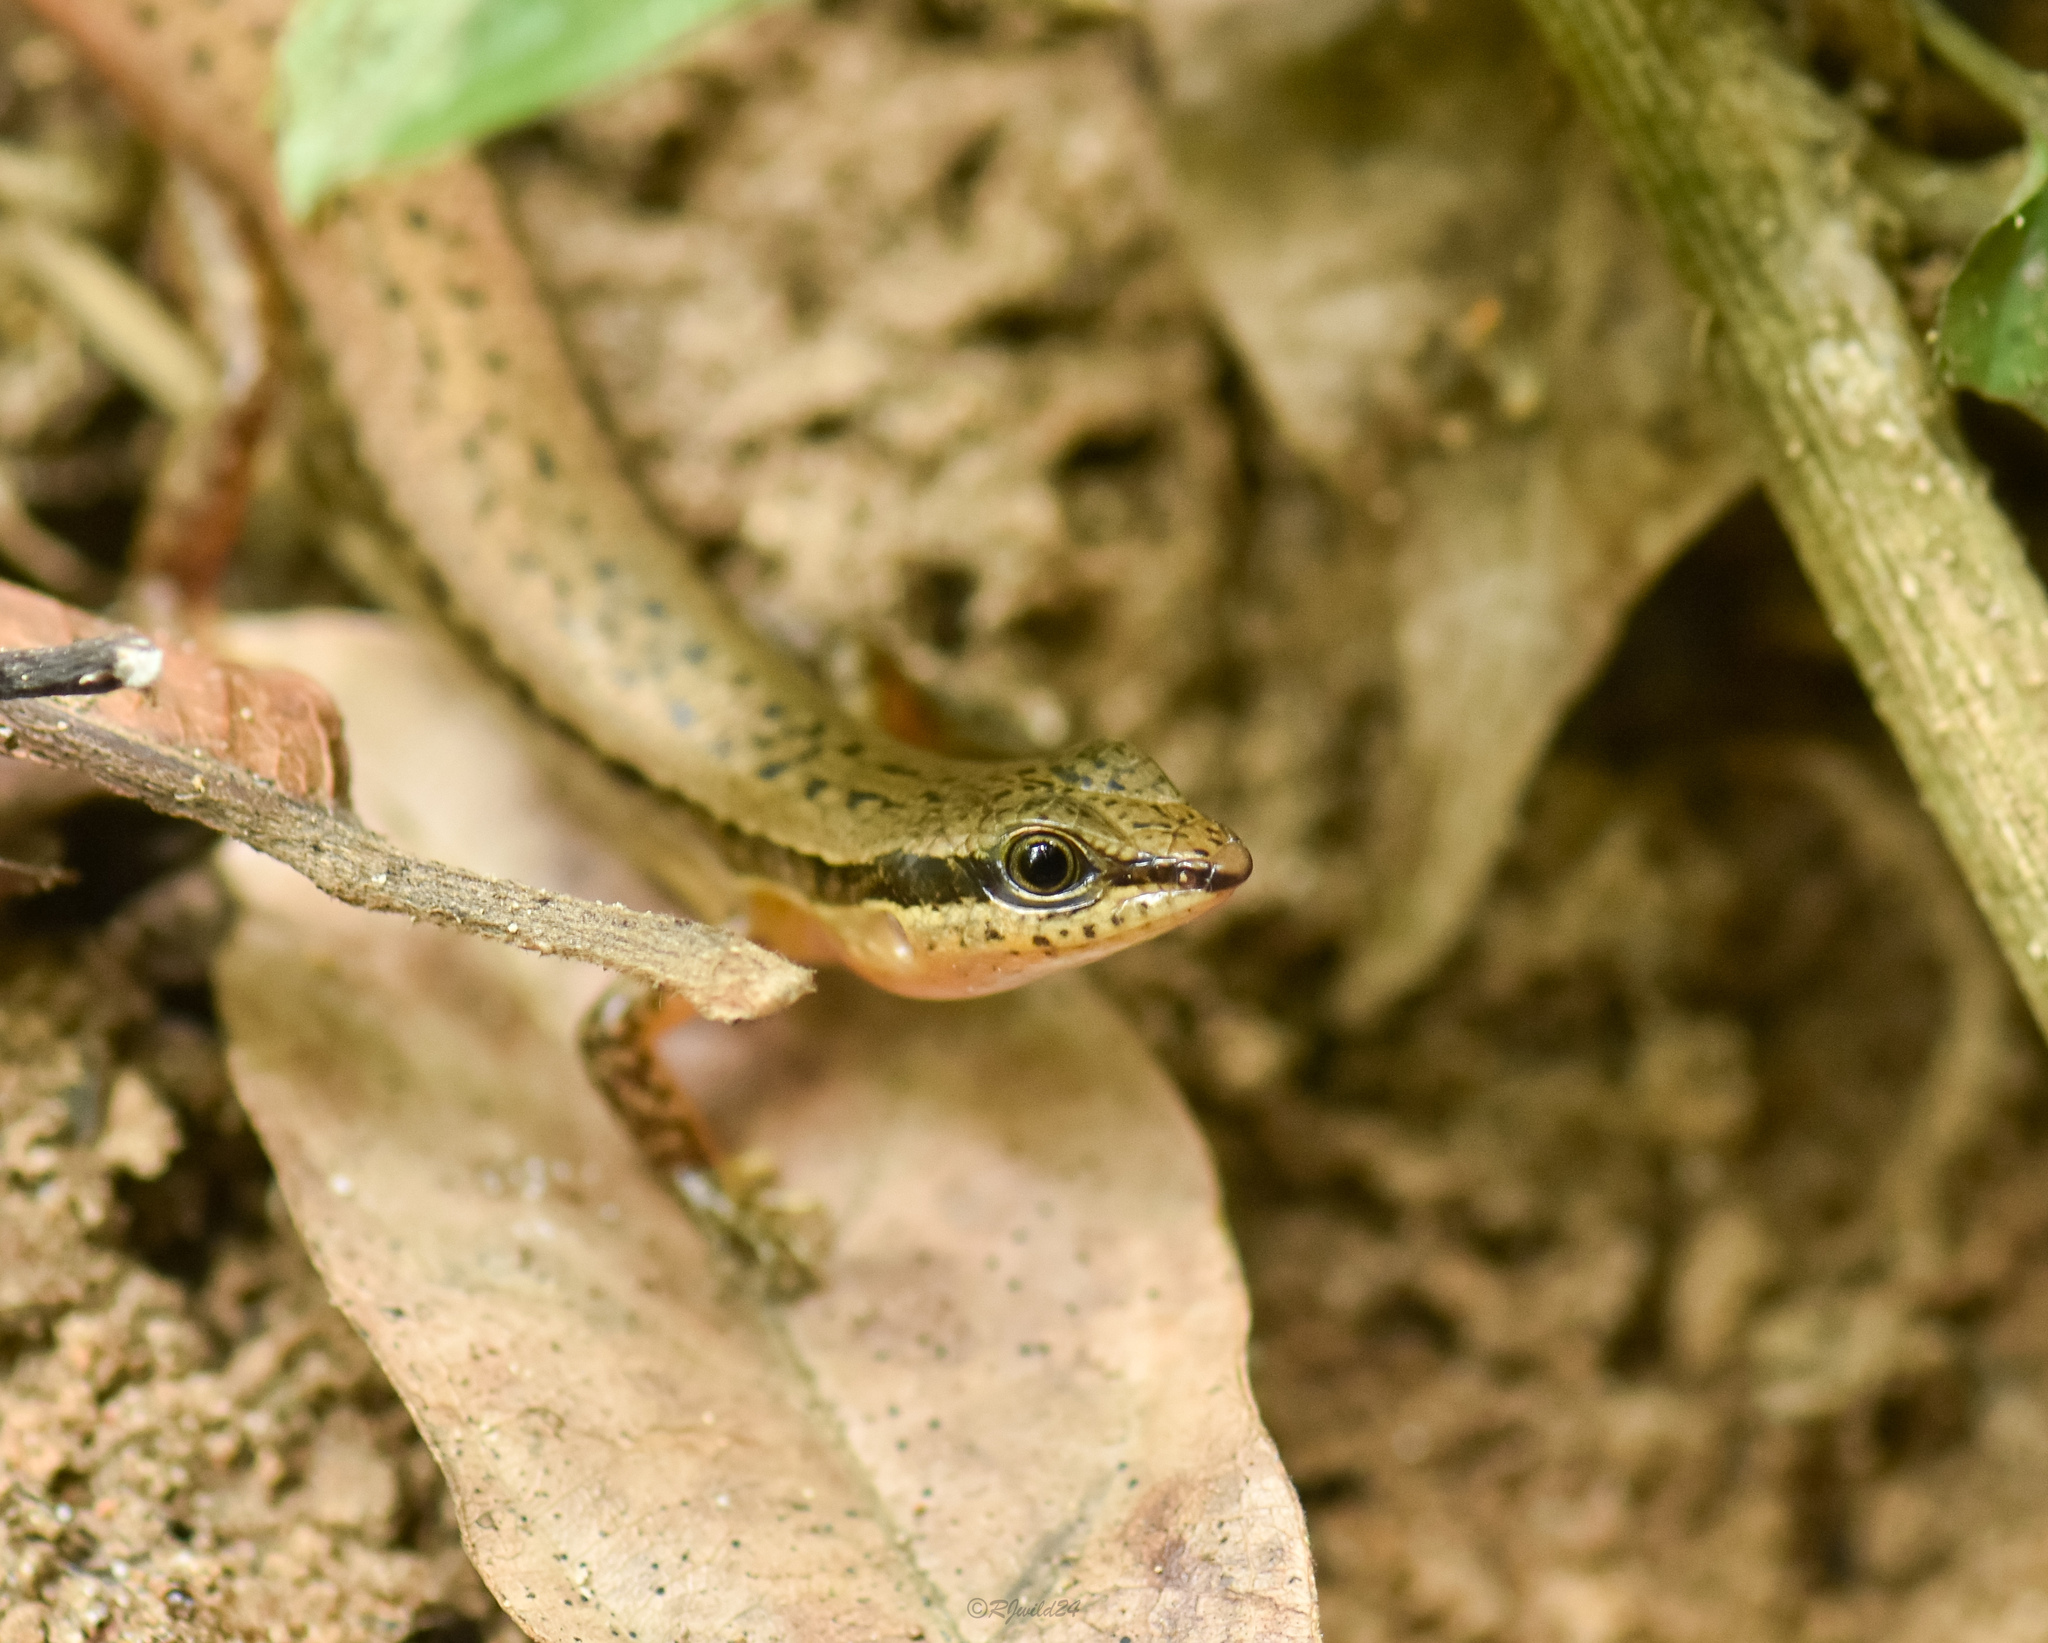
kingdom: Animalia
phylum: Chordata
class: Squamata
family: Scincidae
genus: Sphenomorphus
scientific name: Sphenomorphus maculatus
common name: Maculated forest skink
